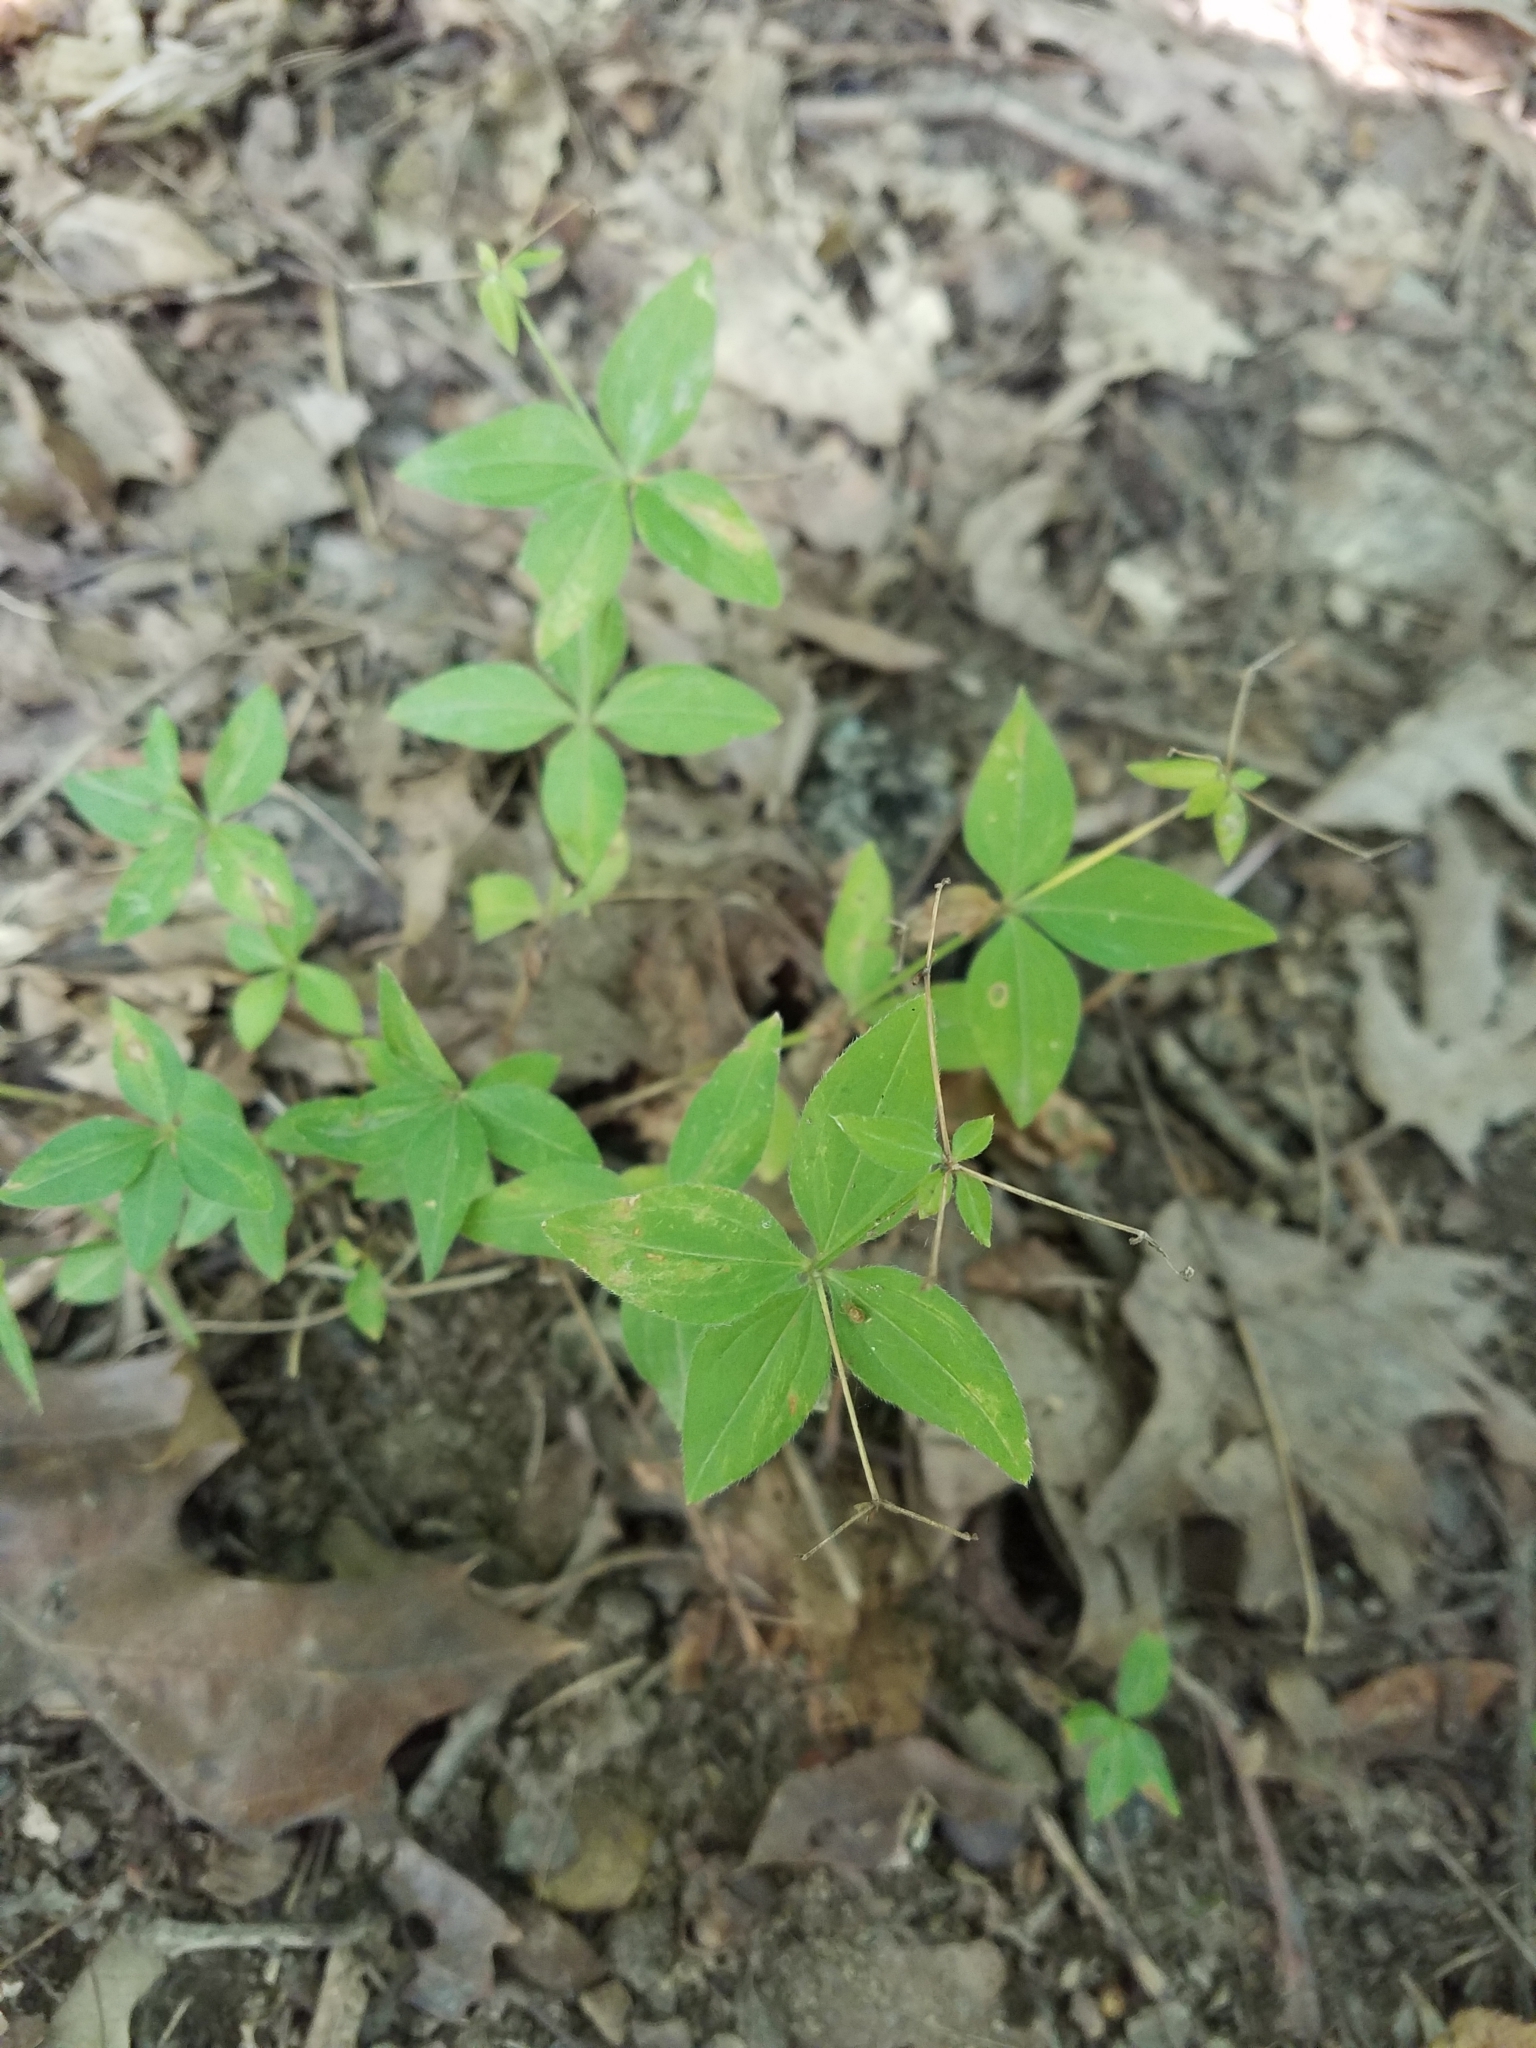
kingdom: Plantae
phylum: Tracheophyta
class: Magnoliopsida
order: Gentianales
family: Rubiaceae
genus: Galium
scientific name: Galium lanceolatum
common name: Lance-leaved wild licorice
